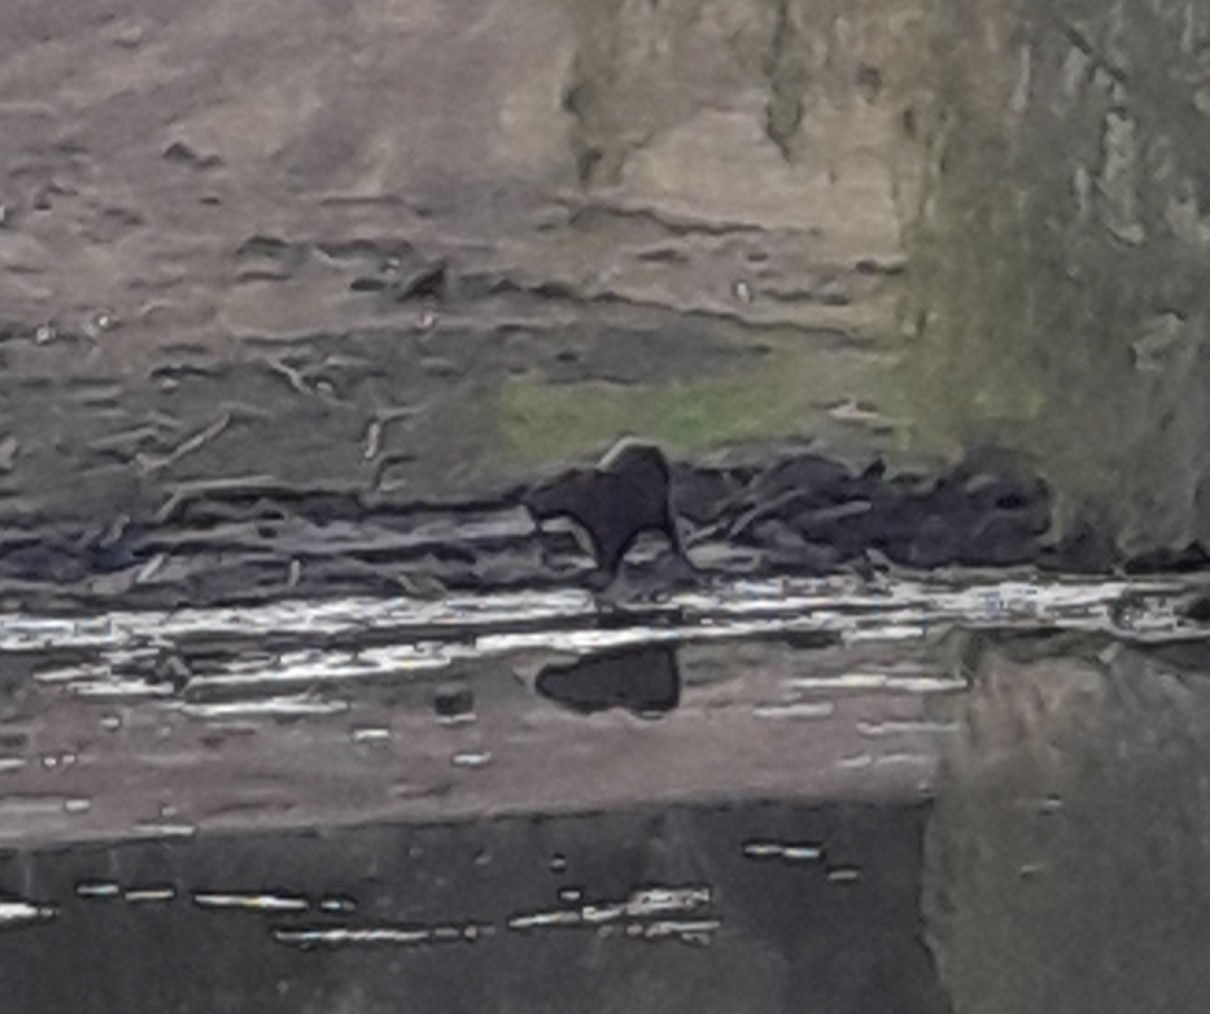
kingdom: Animalia
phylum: Chordata
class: Mammalia
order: Rodentia
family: Caviidae
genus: Hydrochoerus
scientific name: Hydrochoerus hydrochaeris
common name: Capybara
